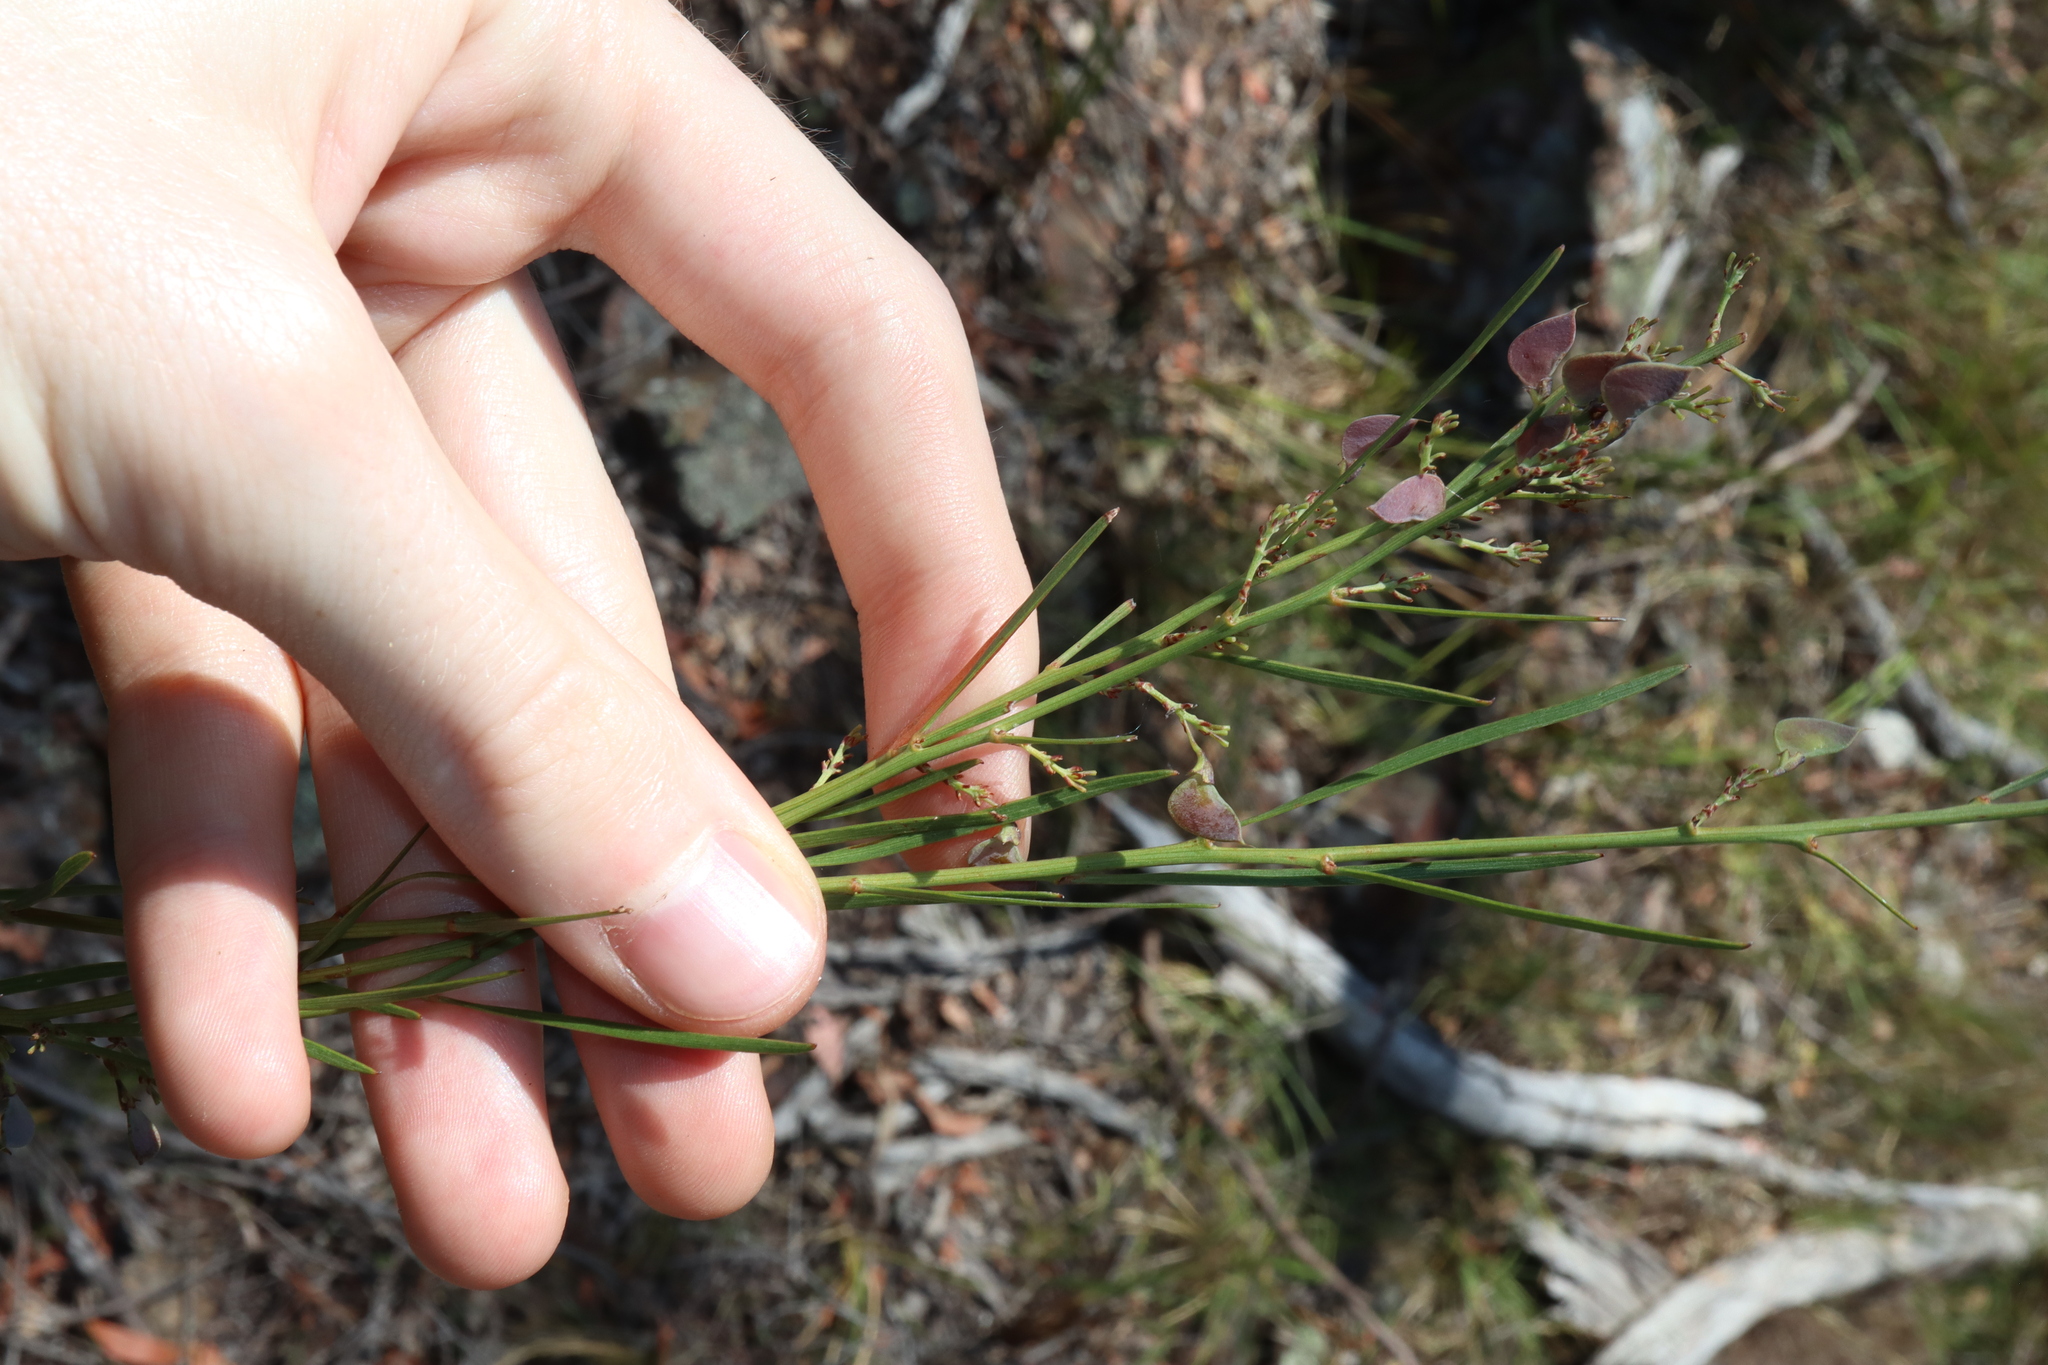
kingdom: Plantae
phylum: Tracheophyta
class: Magnoliopsida
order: Fabales
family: Fabaceae
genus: Daviesia
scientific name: Daviesia leptophylla
